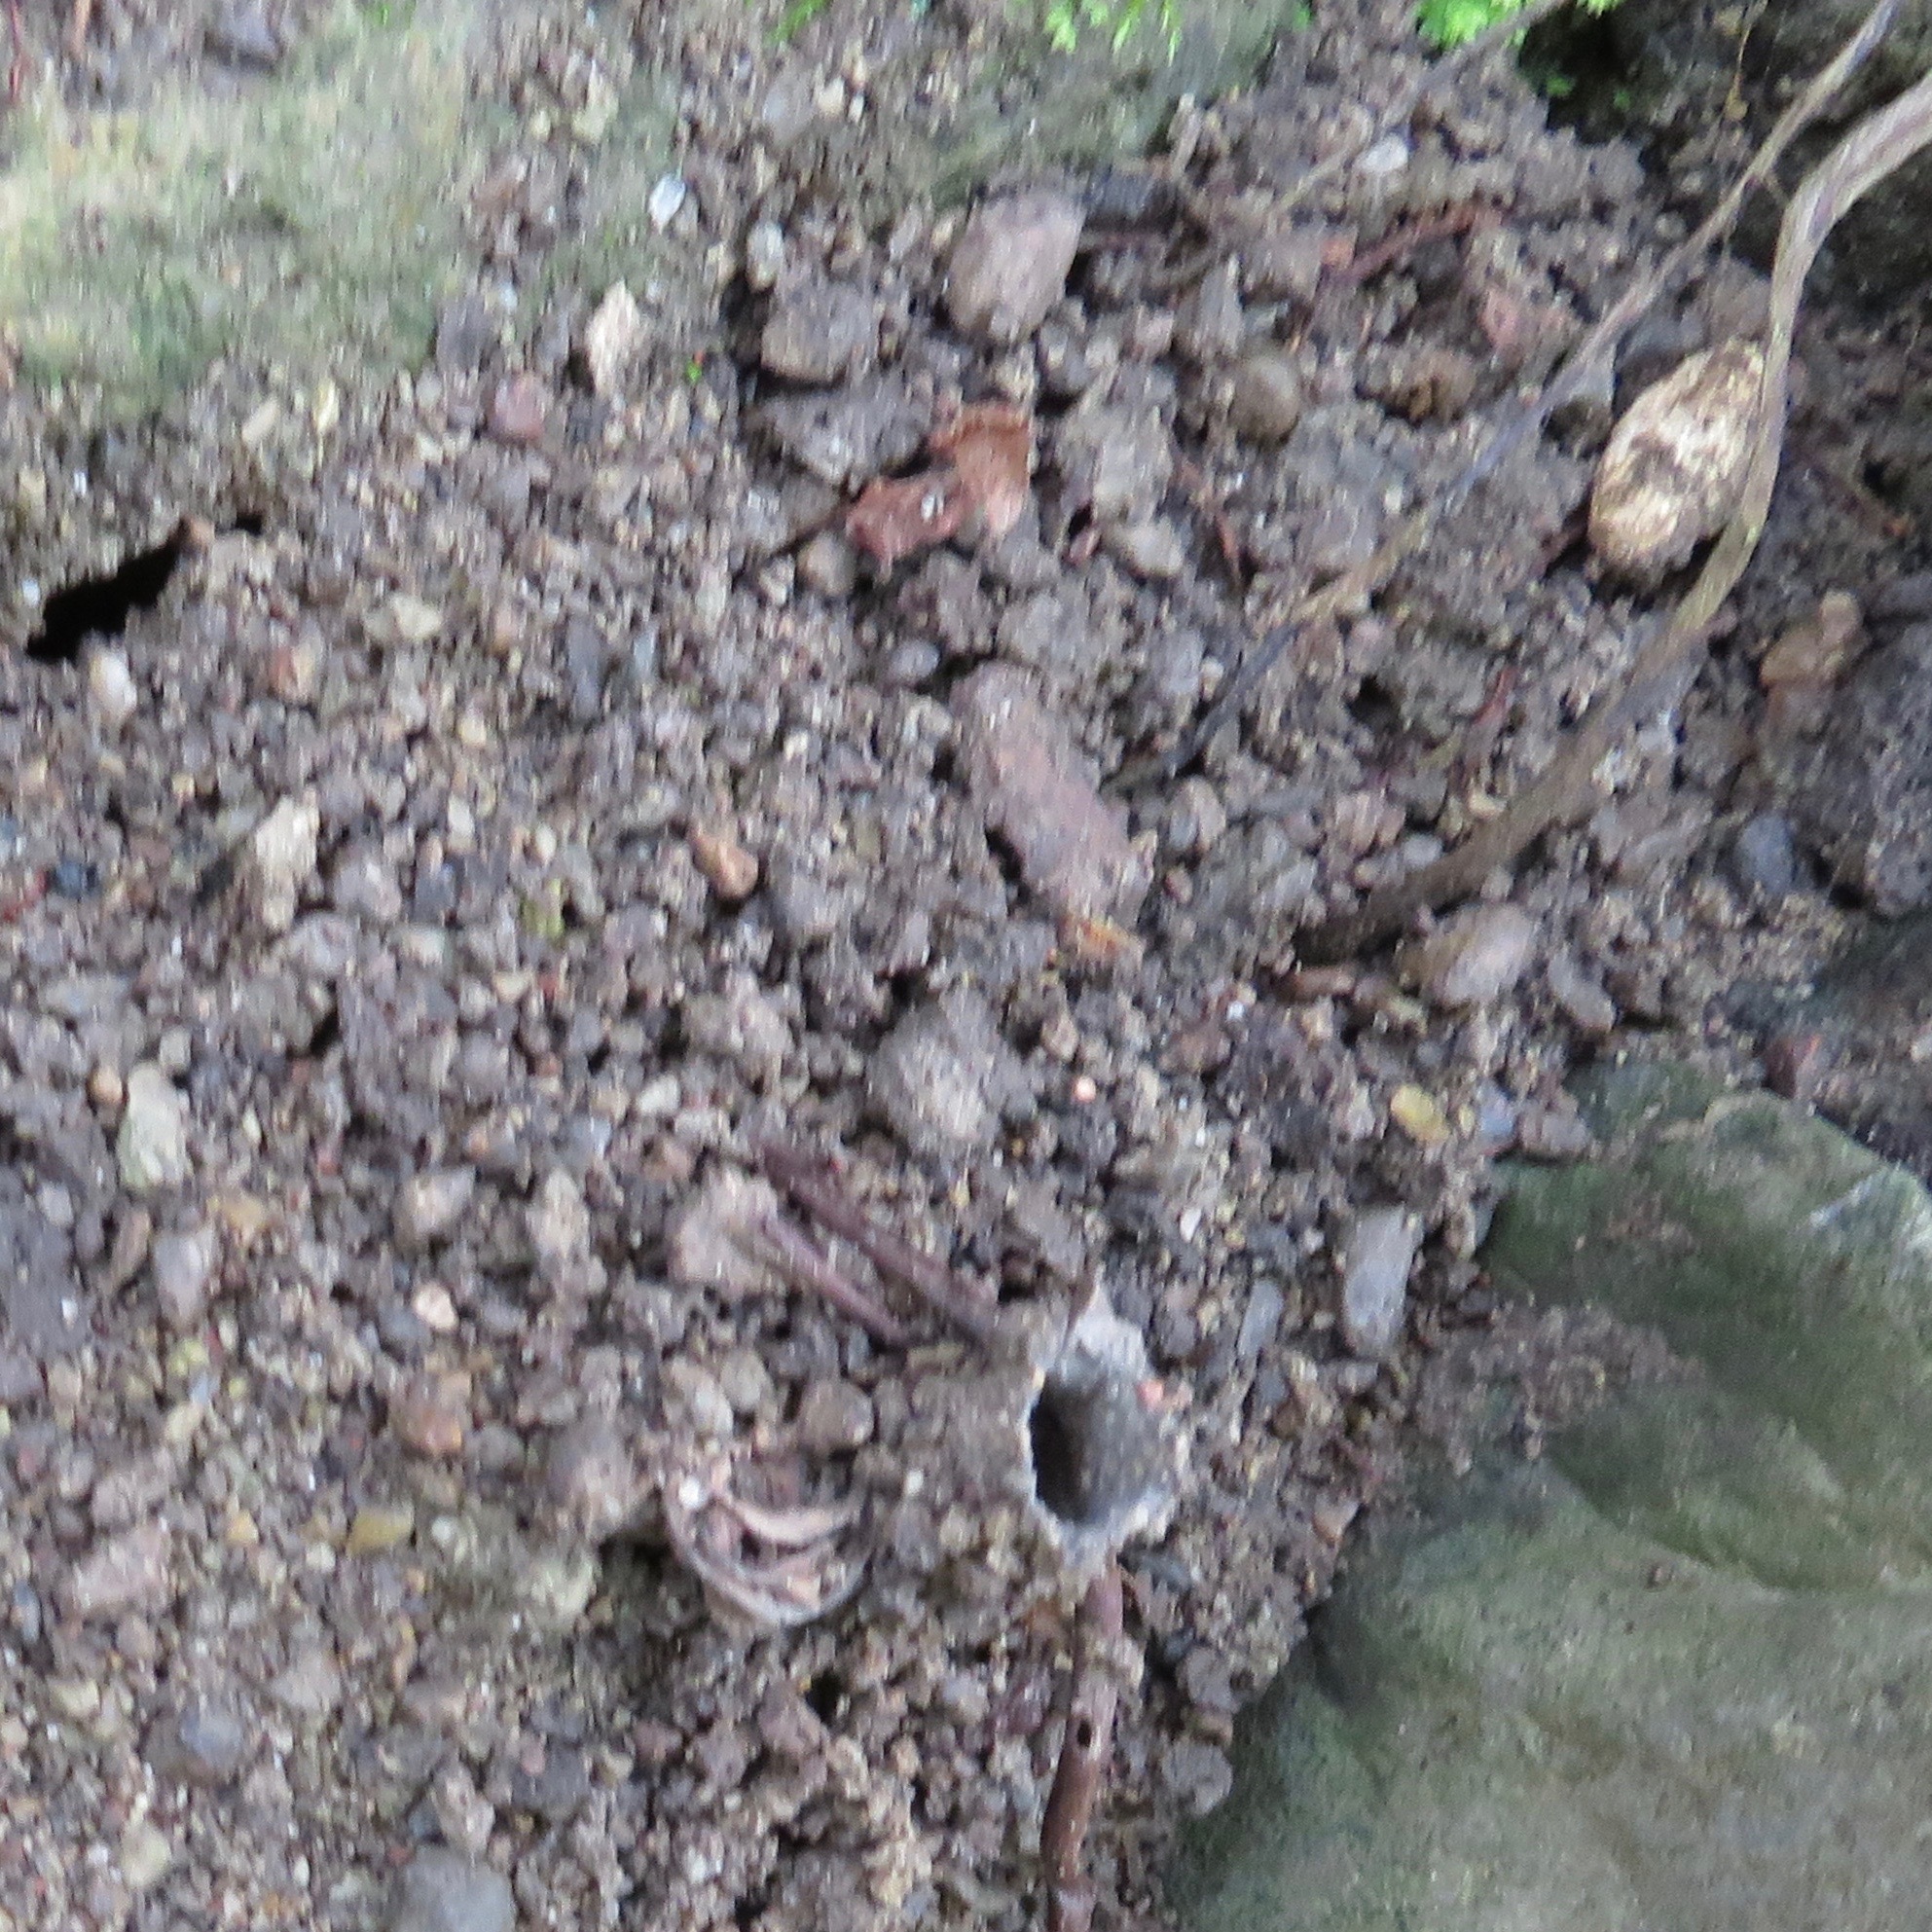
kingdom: Animalia
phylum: Arthropoda
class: Arachnida
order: Araneae
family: Antrodiaetidae
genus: Atypoides
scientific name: Atypoides riversi
